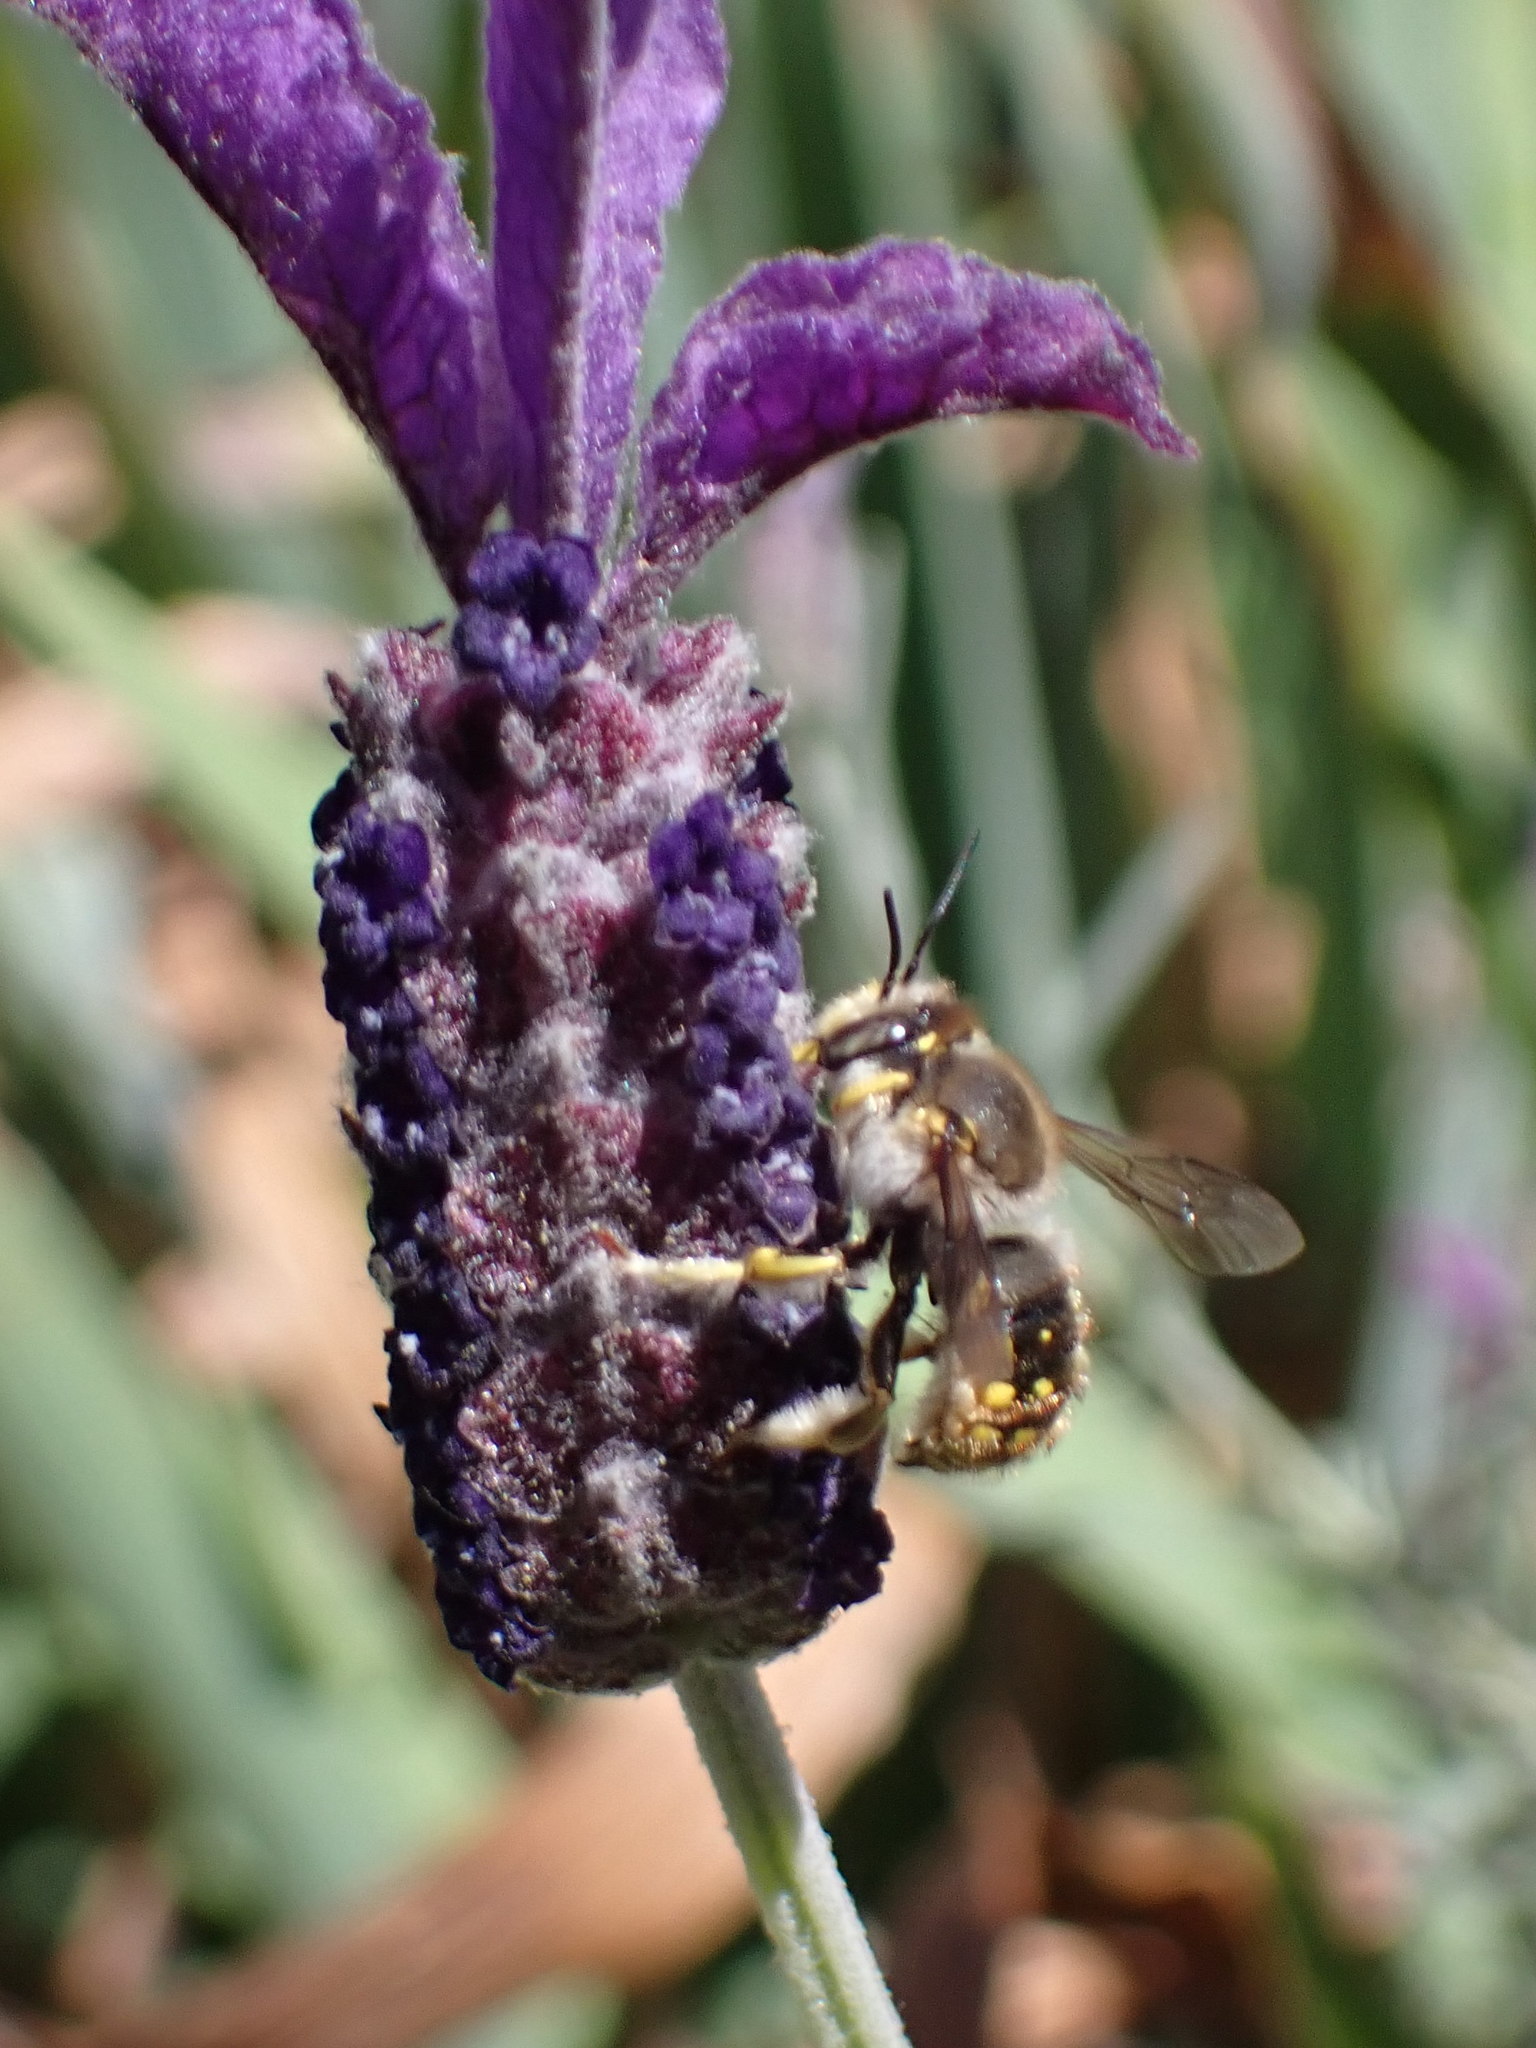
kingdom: Animalia
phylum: Arthropoda
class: Insecta
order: Hymenoptera
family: Megachilidae
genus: Anthidium
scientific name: Anthidium manicatum
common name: Wool carder bee
